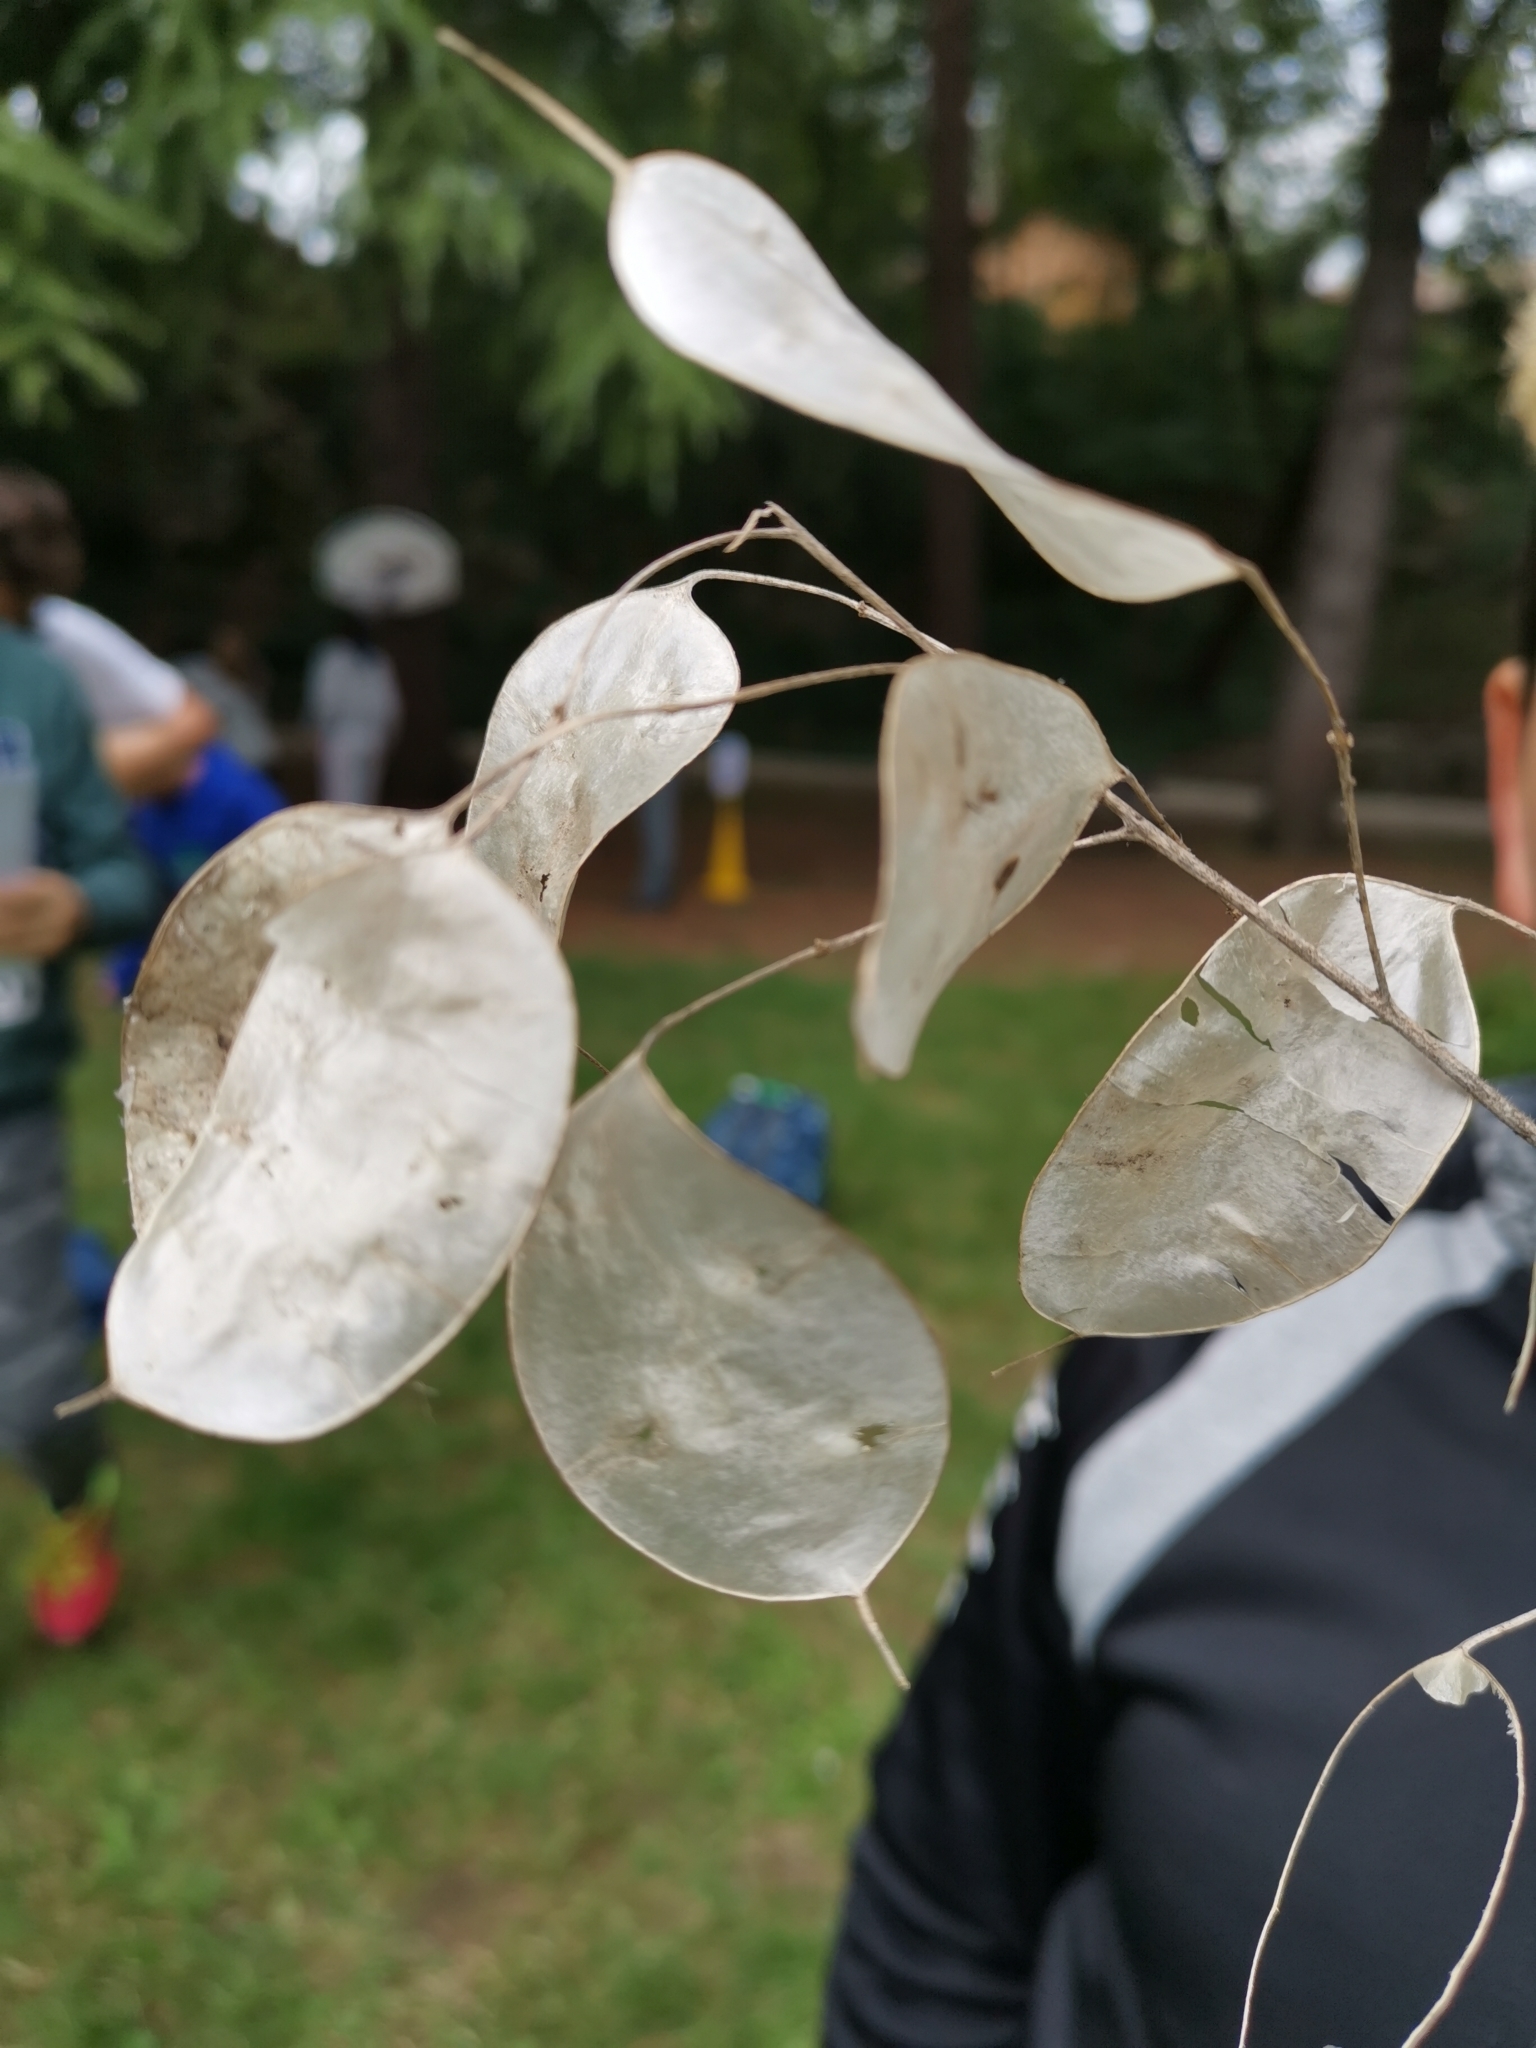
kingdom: Plantae
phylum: Tracheophyta
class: Magnoliopsida
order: Brassicales
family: Brassicaceae
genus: Lunaria
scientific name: Lunaria annua
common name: Honesty
